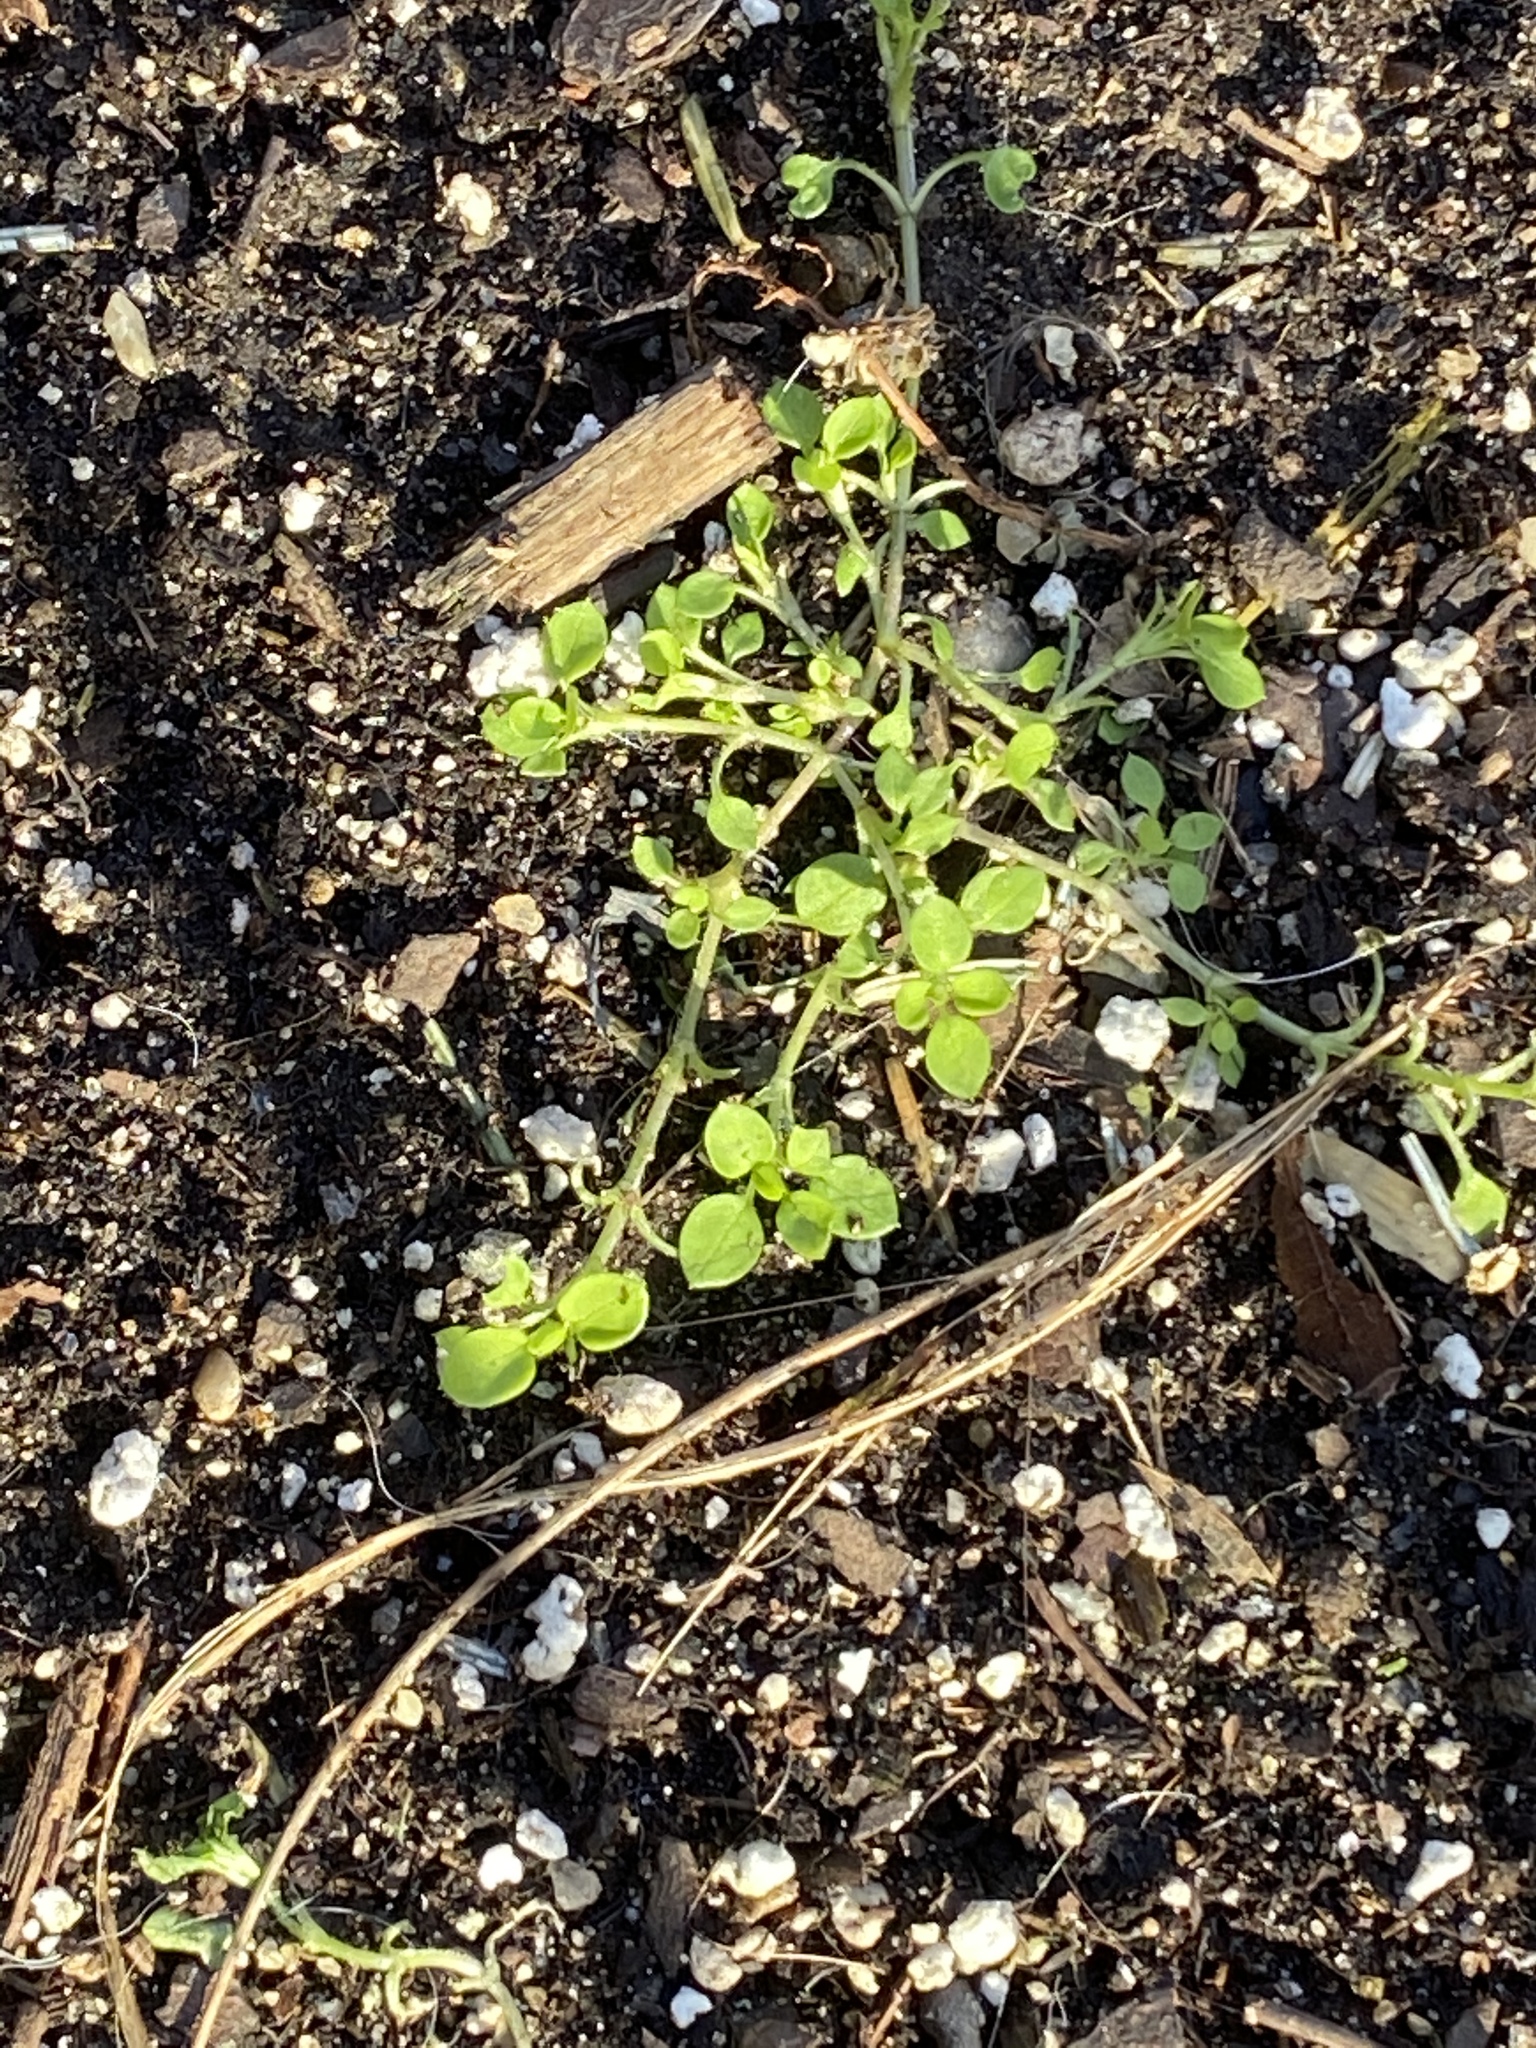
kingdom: Plantae
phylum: Tracheophyta
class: Magnoliopsida
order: Caryophyllales
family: Caryophyllaceae
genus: Stellaria
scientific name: Stellaria media
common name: Common chickweed
